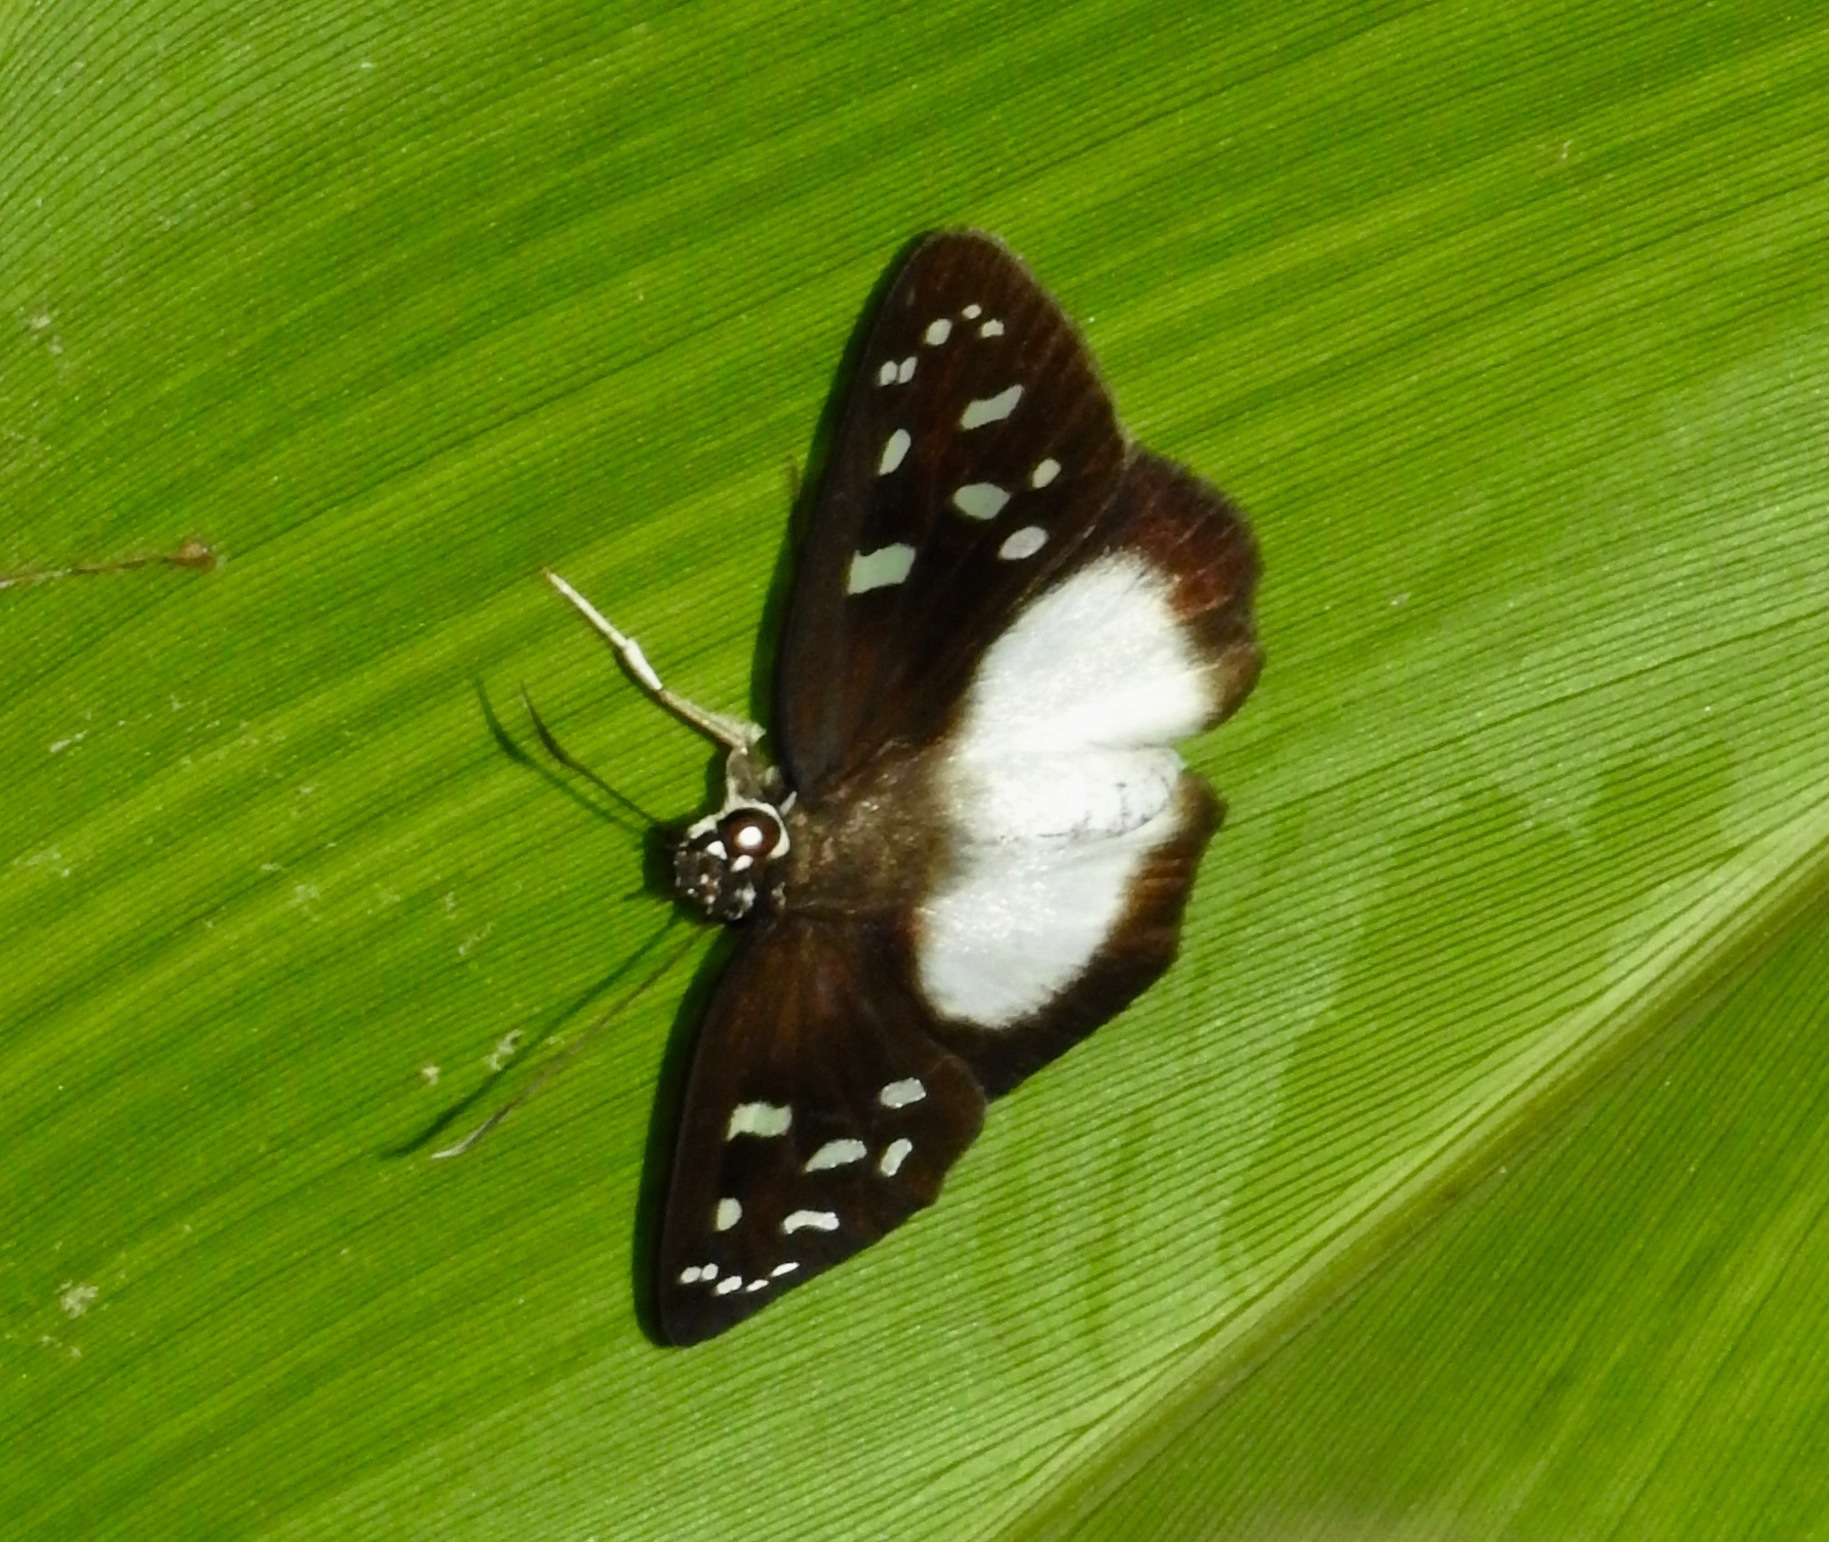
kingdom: Animalia
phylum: Arthropoda
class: Insecta
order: Lepidoptera
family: Hesperiidae
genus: Hyalothyrus
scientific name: Hyalothyrus neleus
